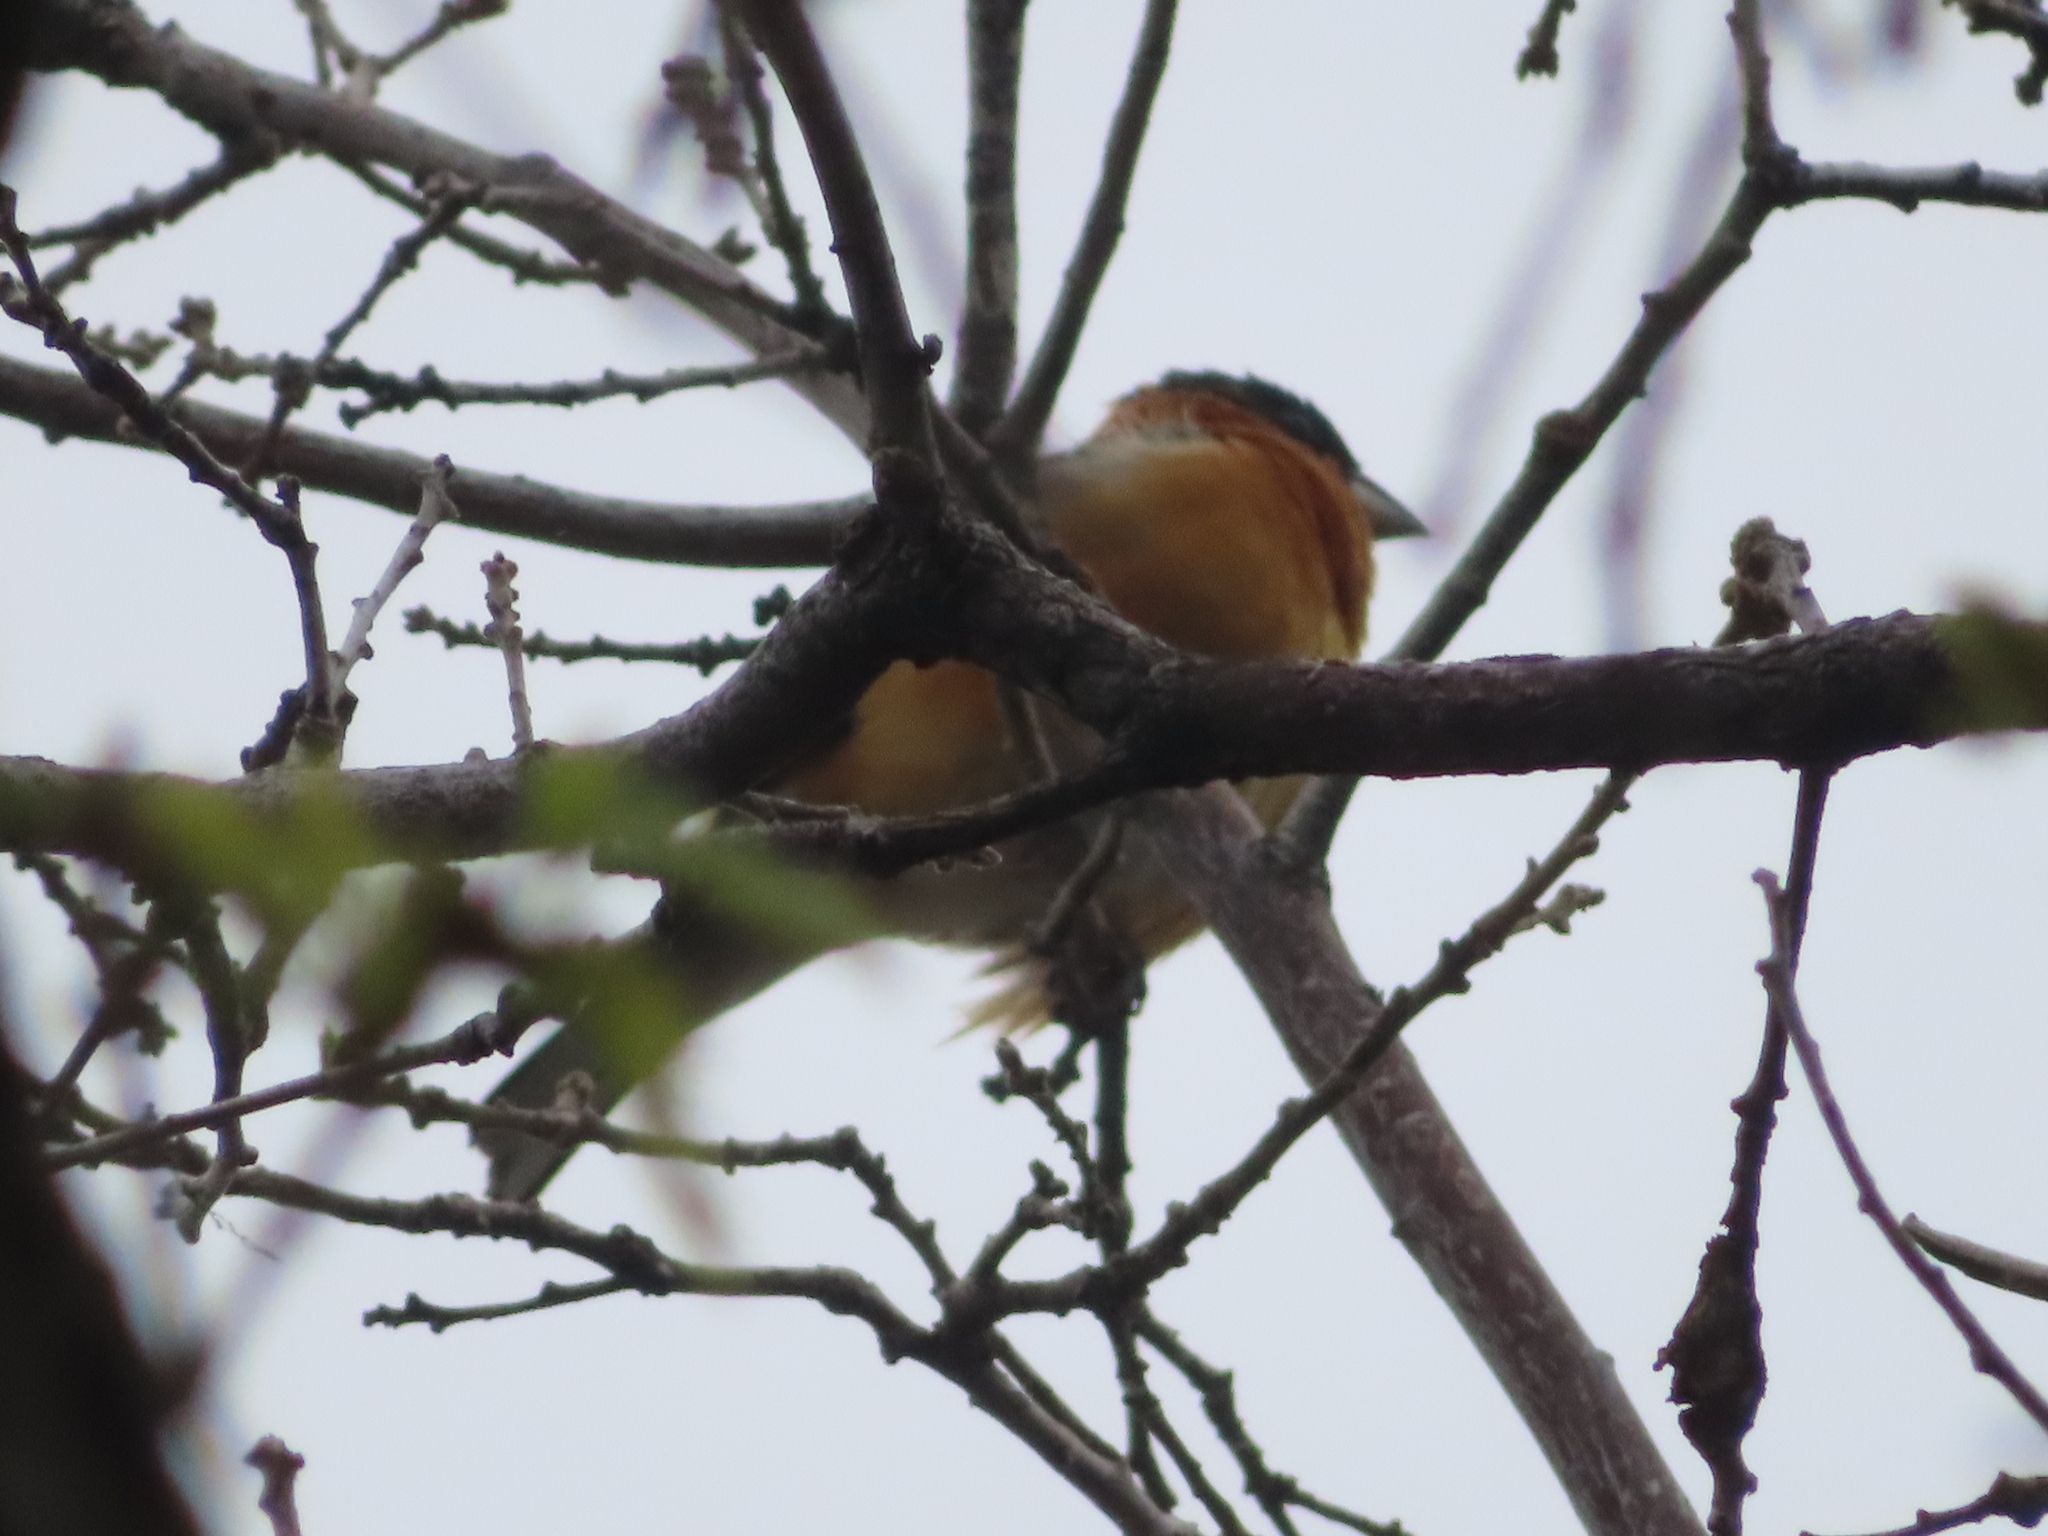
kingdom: Animalia
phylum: Chordata
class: Aves
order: Passeriformes
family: Cardinalidae
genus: Pheucticus
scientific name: Pheucticus melanocephalus
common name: Black-headed grosbeak
